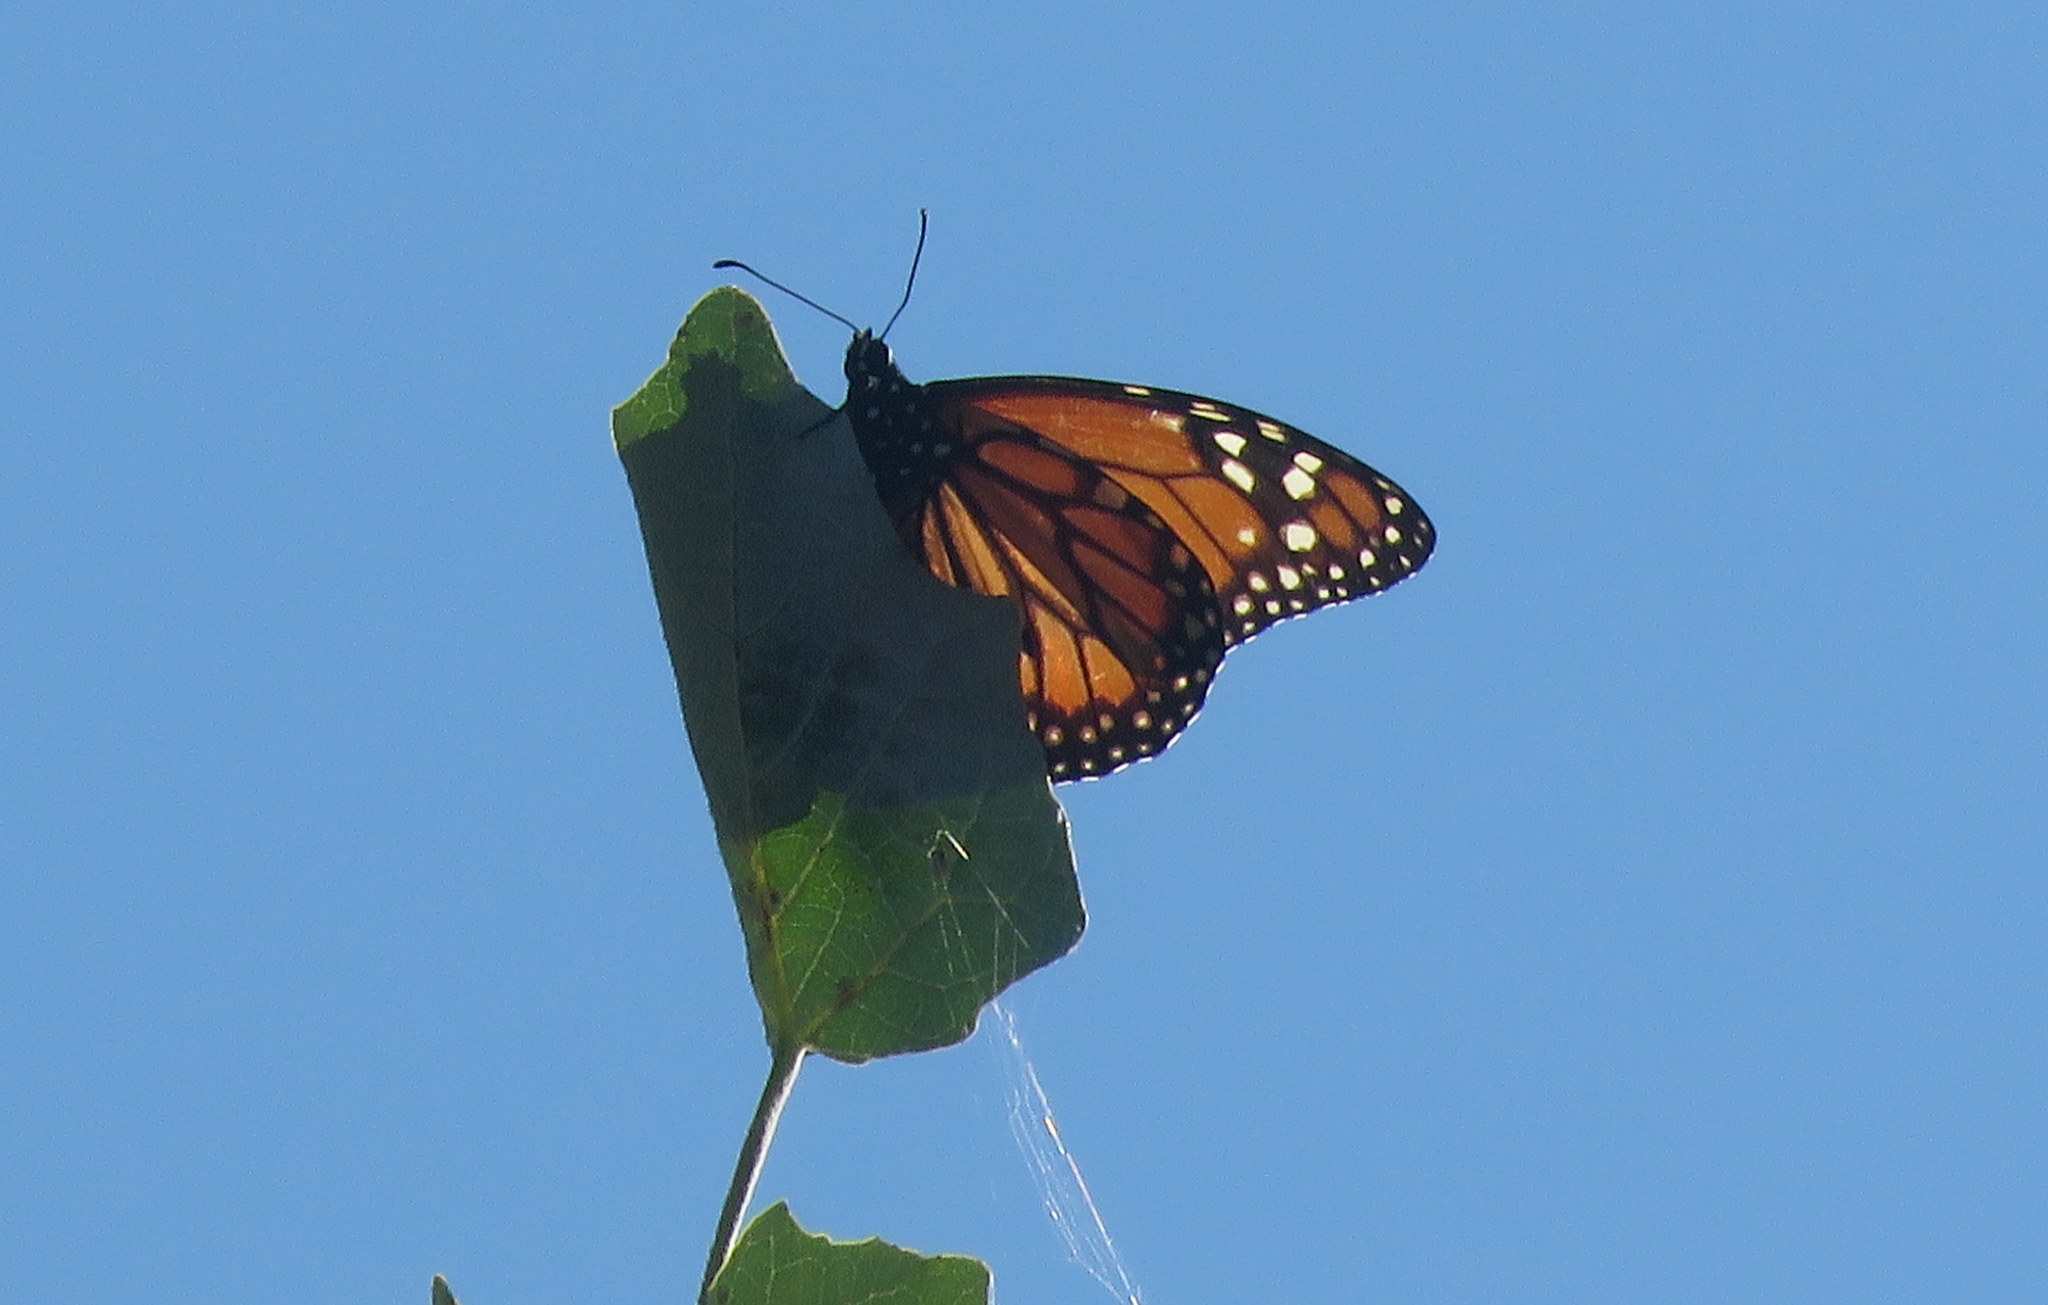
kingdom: Animalia
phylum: Arthropoda
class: Insecta
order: Lepidoptera
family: Nymphalidae
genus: Danaus
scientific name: Danaus erippus
